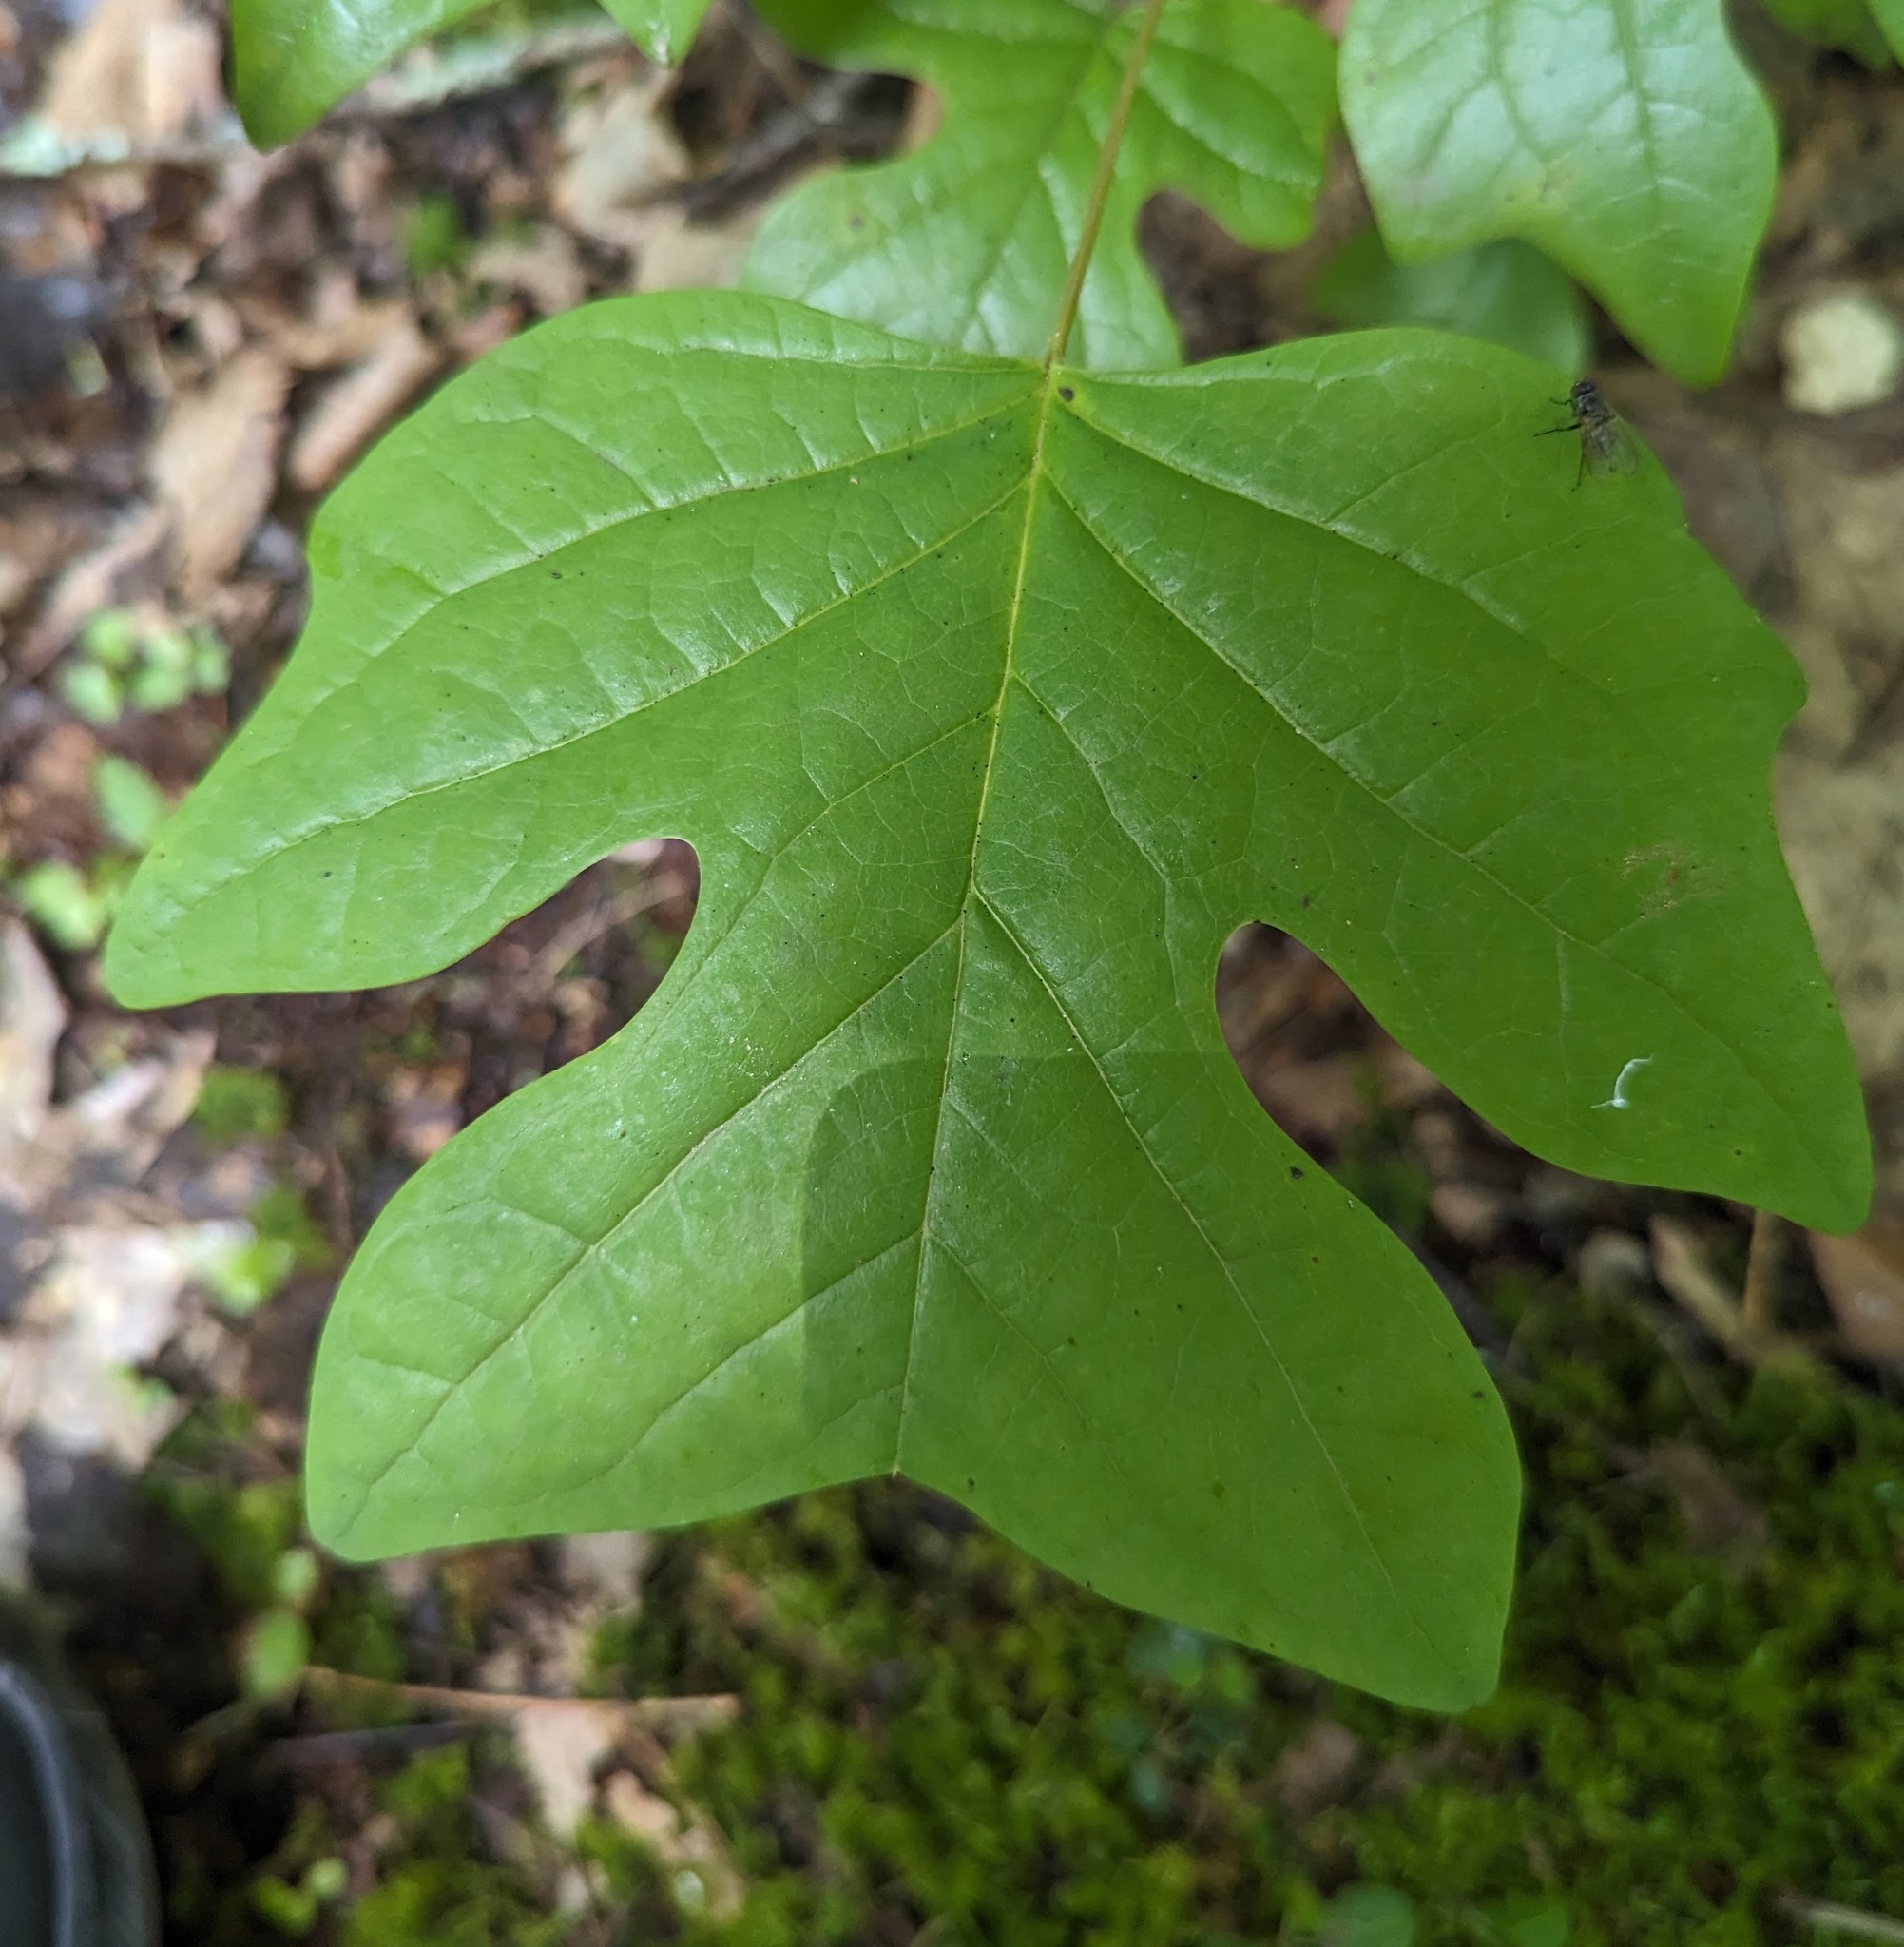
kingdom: Plantae
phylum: Tracheophyta
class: Magnoliopsida
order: Magnoliales
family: Magnoliaceae
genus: Liriodendron
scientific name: Liriodendron tulipifera
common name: Tulip tree
